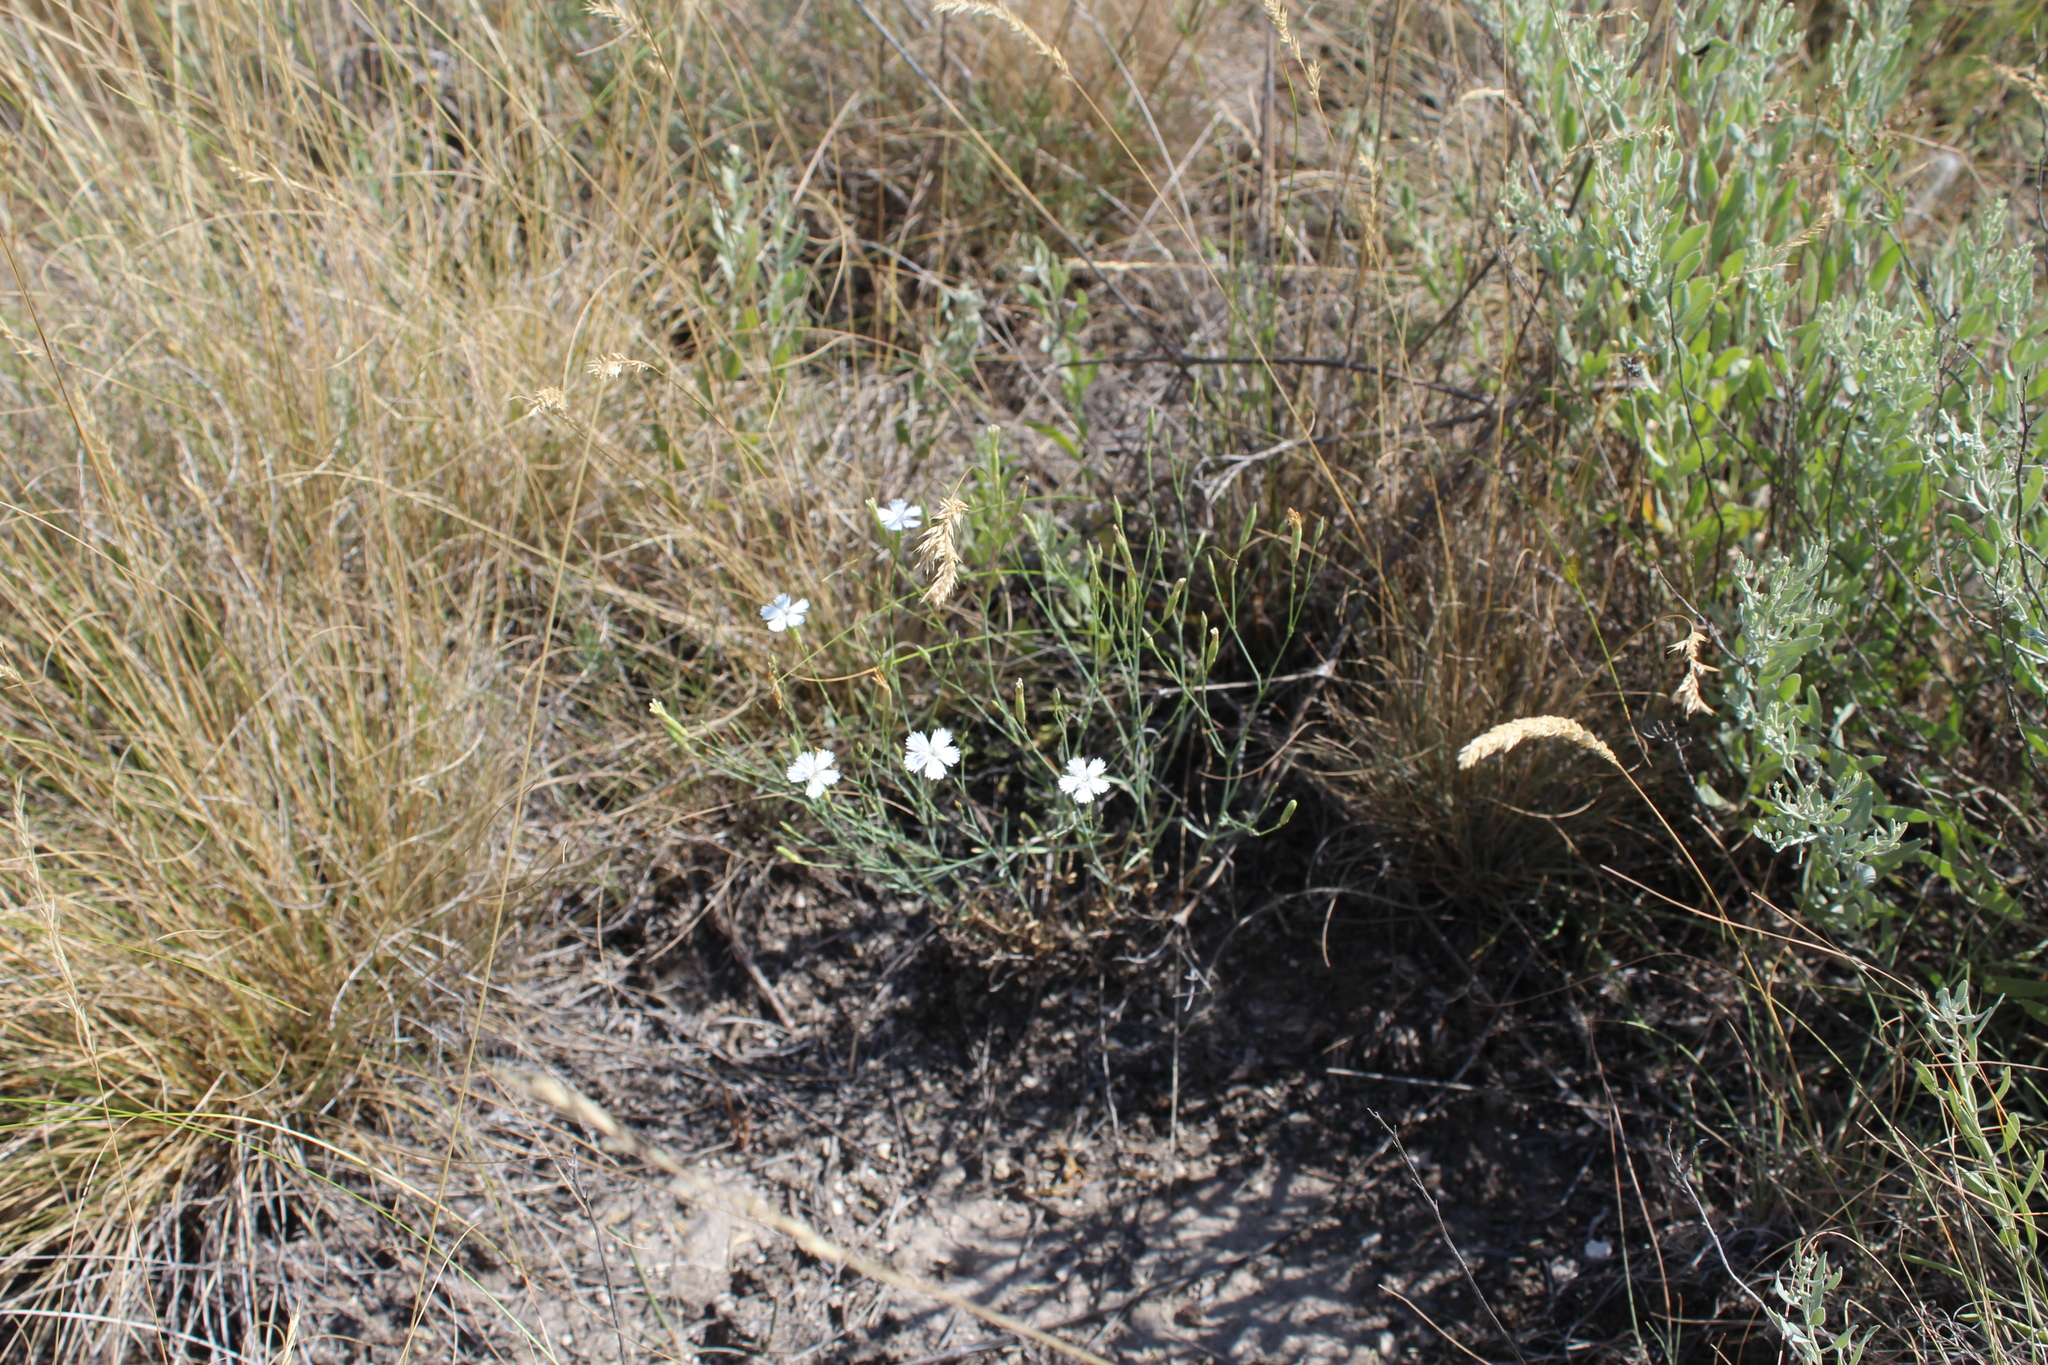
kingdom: Plantae
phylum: Tracheophyta
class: Magnoliopsida
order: Caryophyllales
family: Caryophyllaceae
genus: Dianthus
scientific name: Dianthus rigidus
